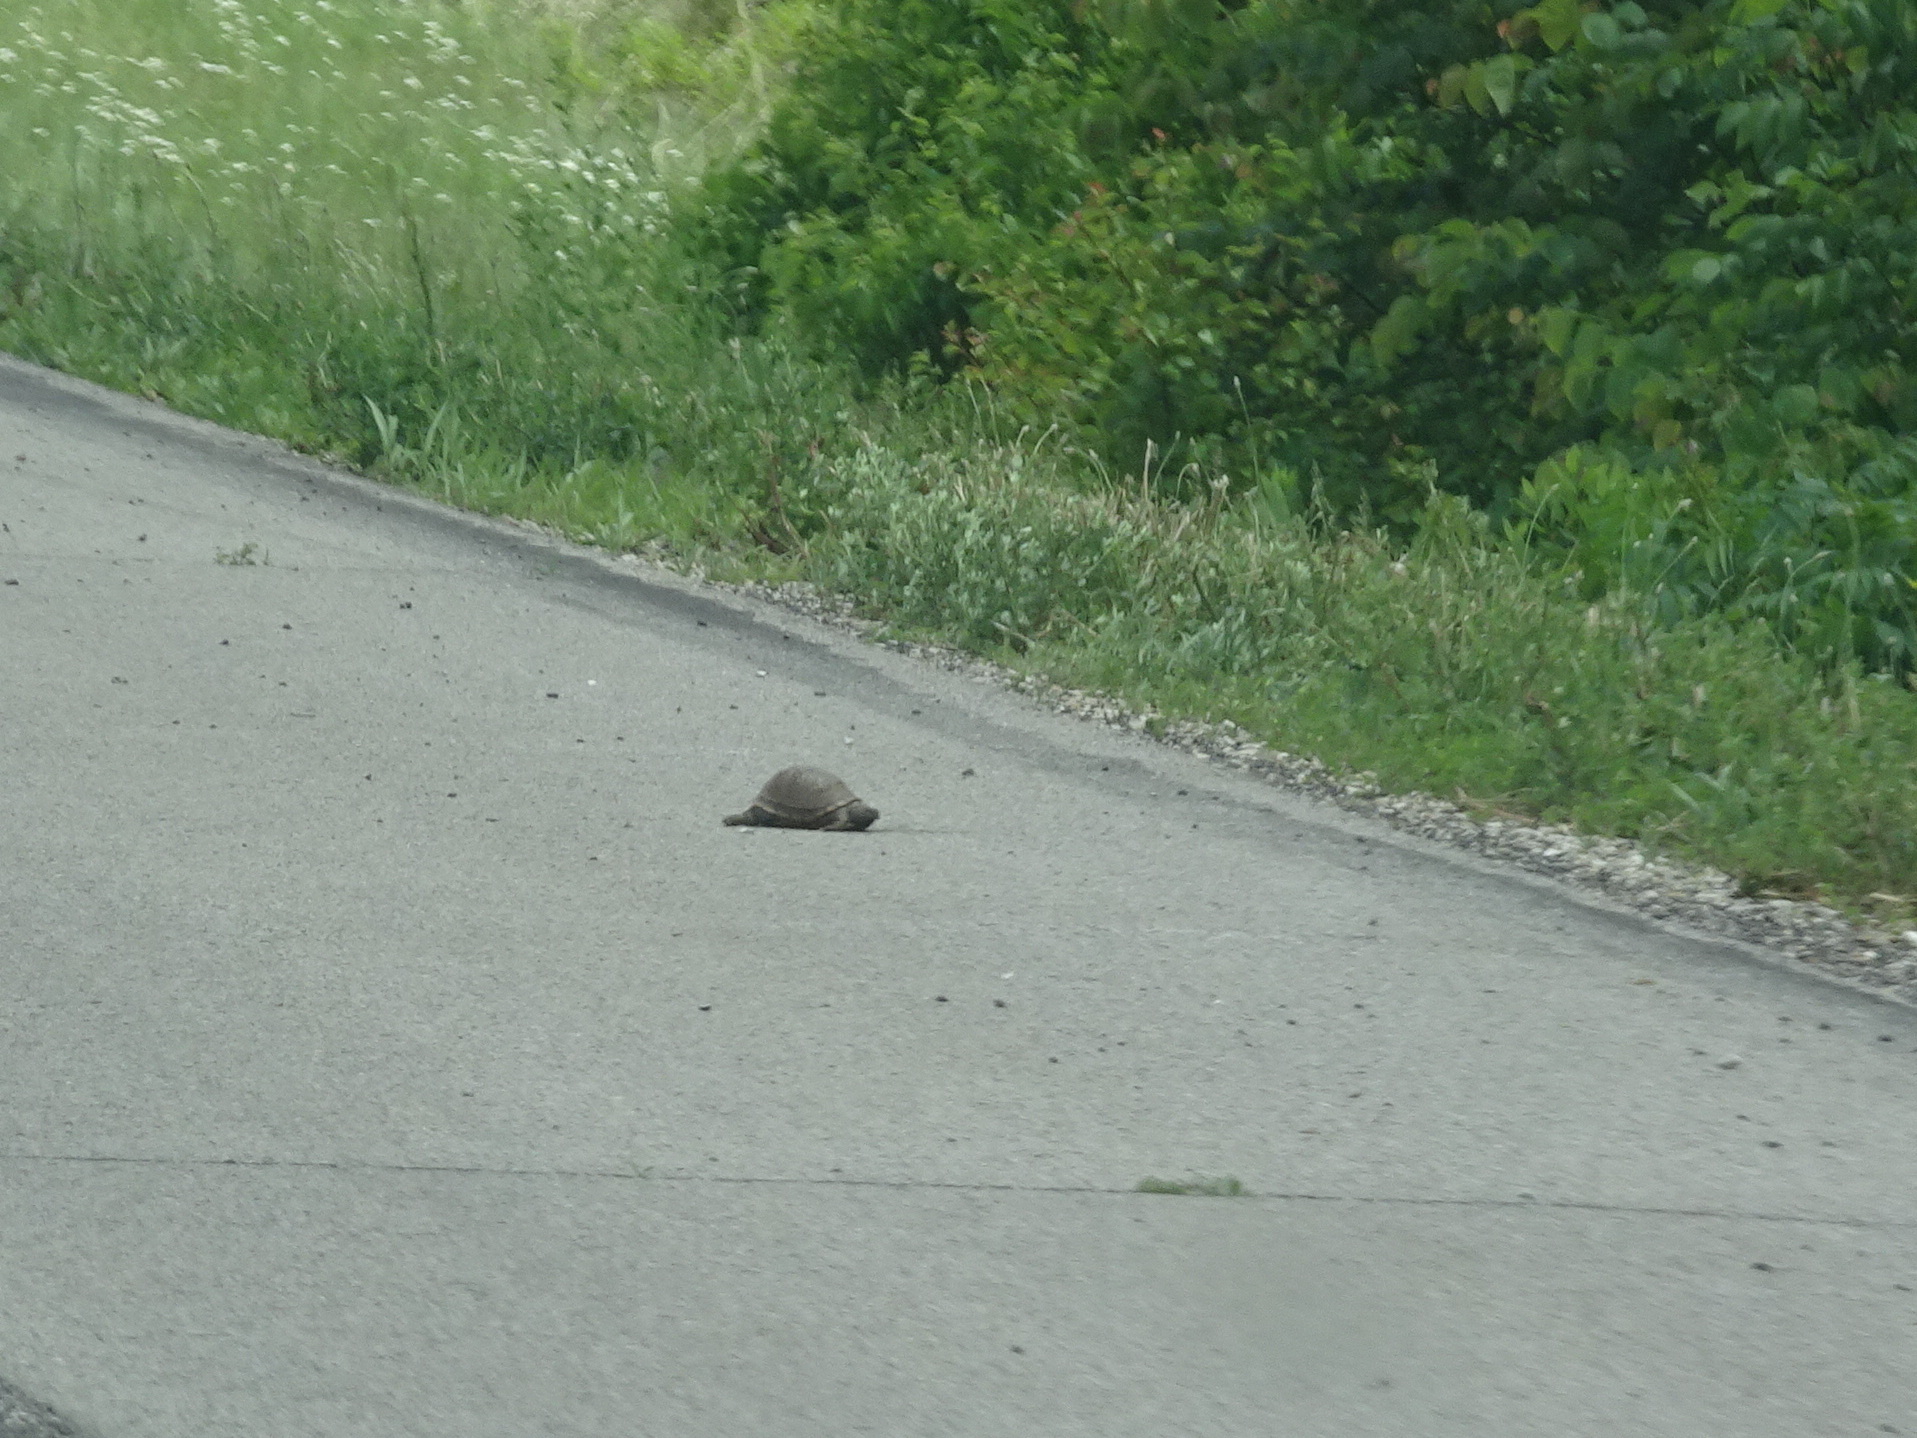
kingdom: Animalia
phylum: Chordata
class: Testudines
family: Emydidae
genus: Terrapene
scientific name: Terrapene carolina
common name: Common box turtle
